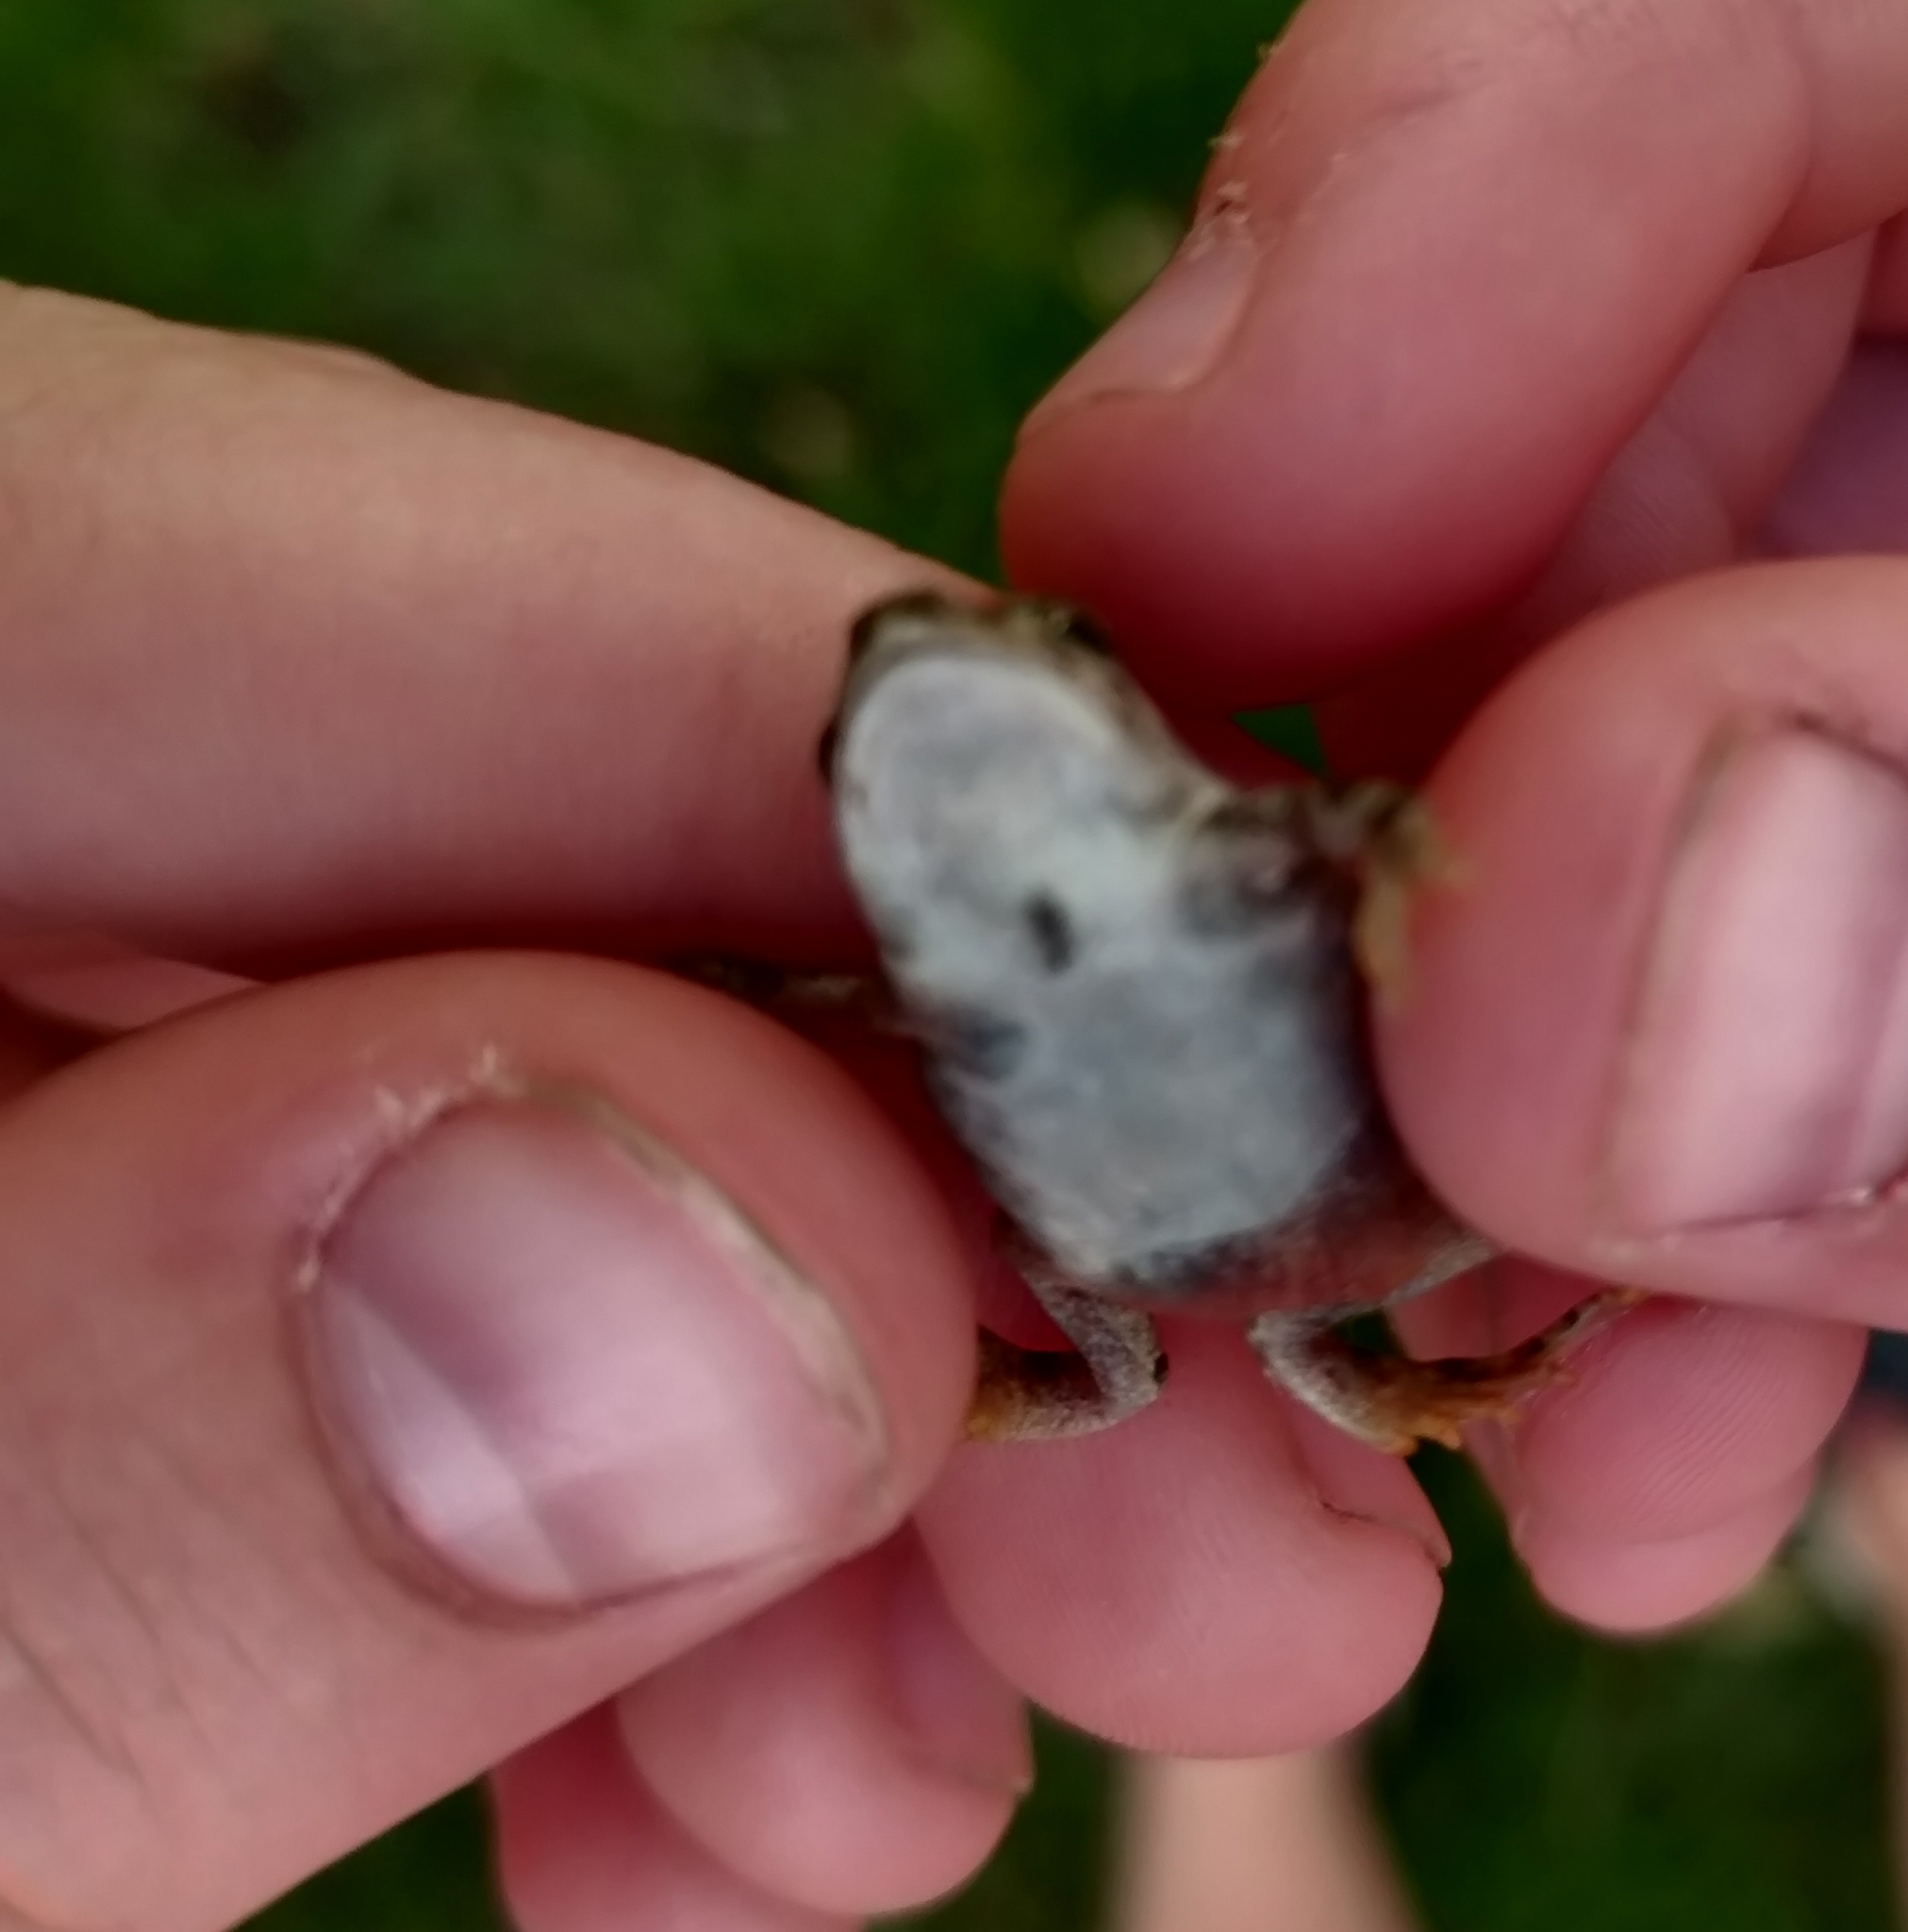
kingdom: Animalia
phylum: Chordata
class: Amphibia
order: Anura
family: Bufonidae
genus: Anaxyrus
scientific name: Anaxyrus woodhousii
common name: Woodhouse's toad
